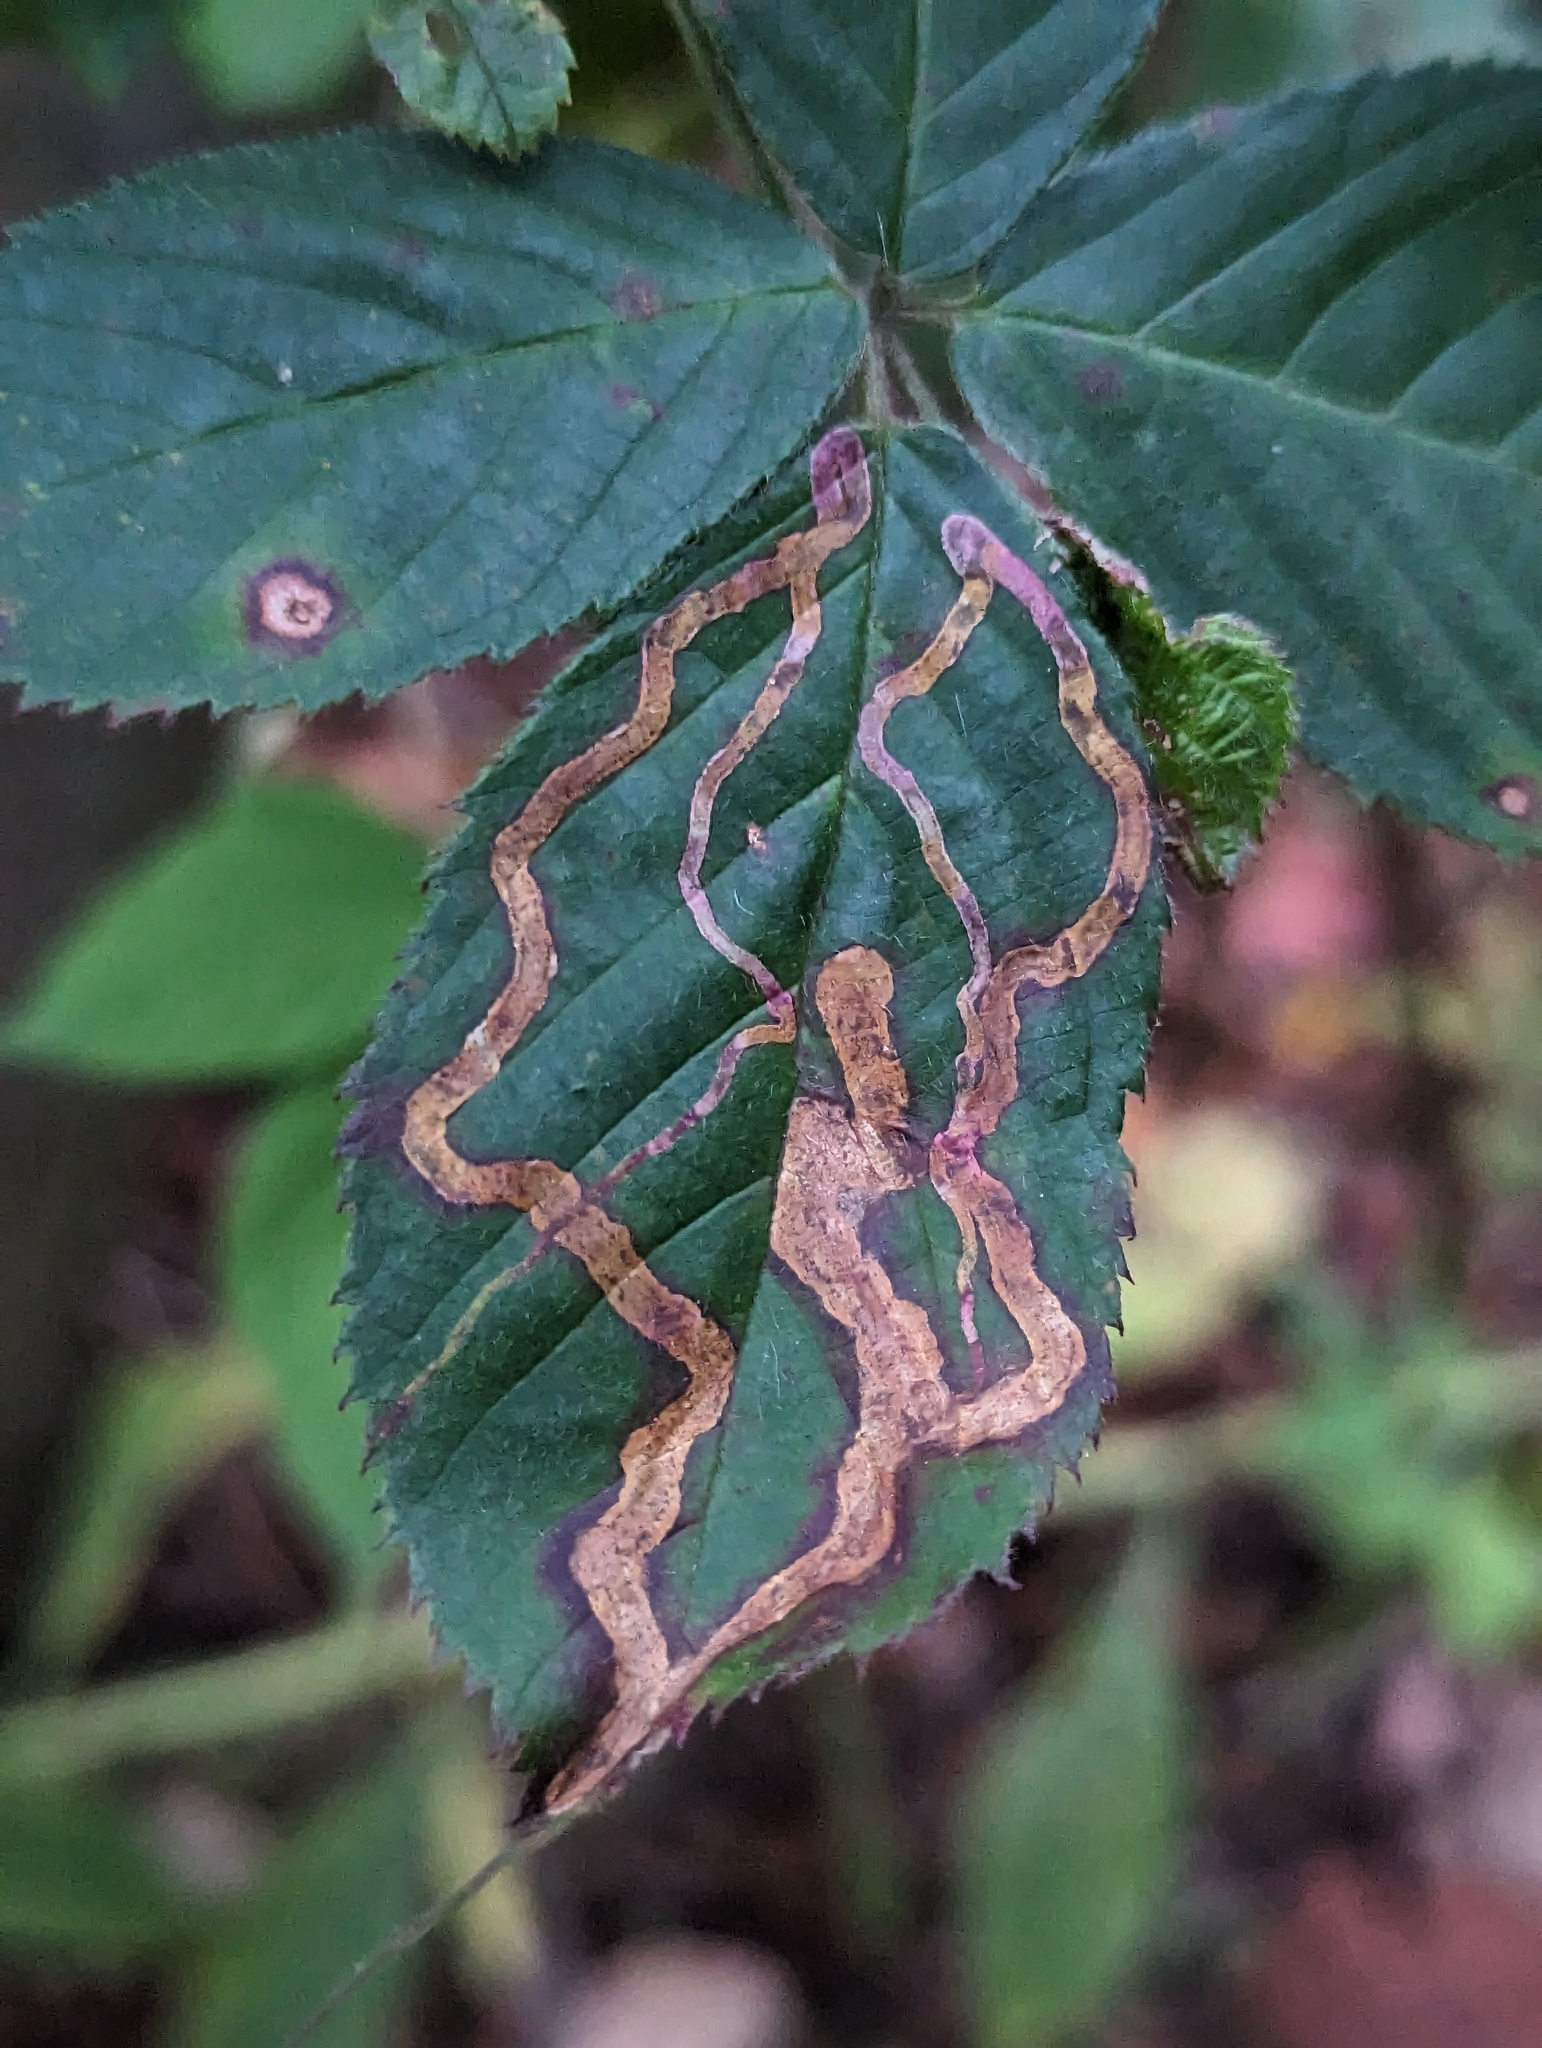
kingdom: Animalia
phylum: Arthropoda
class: Insecta
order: Diptera
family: Agromyzidae
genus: Agromyza
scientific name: Agromyza vockerothi
